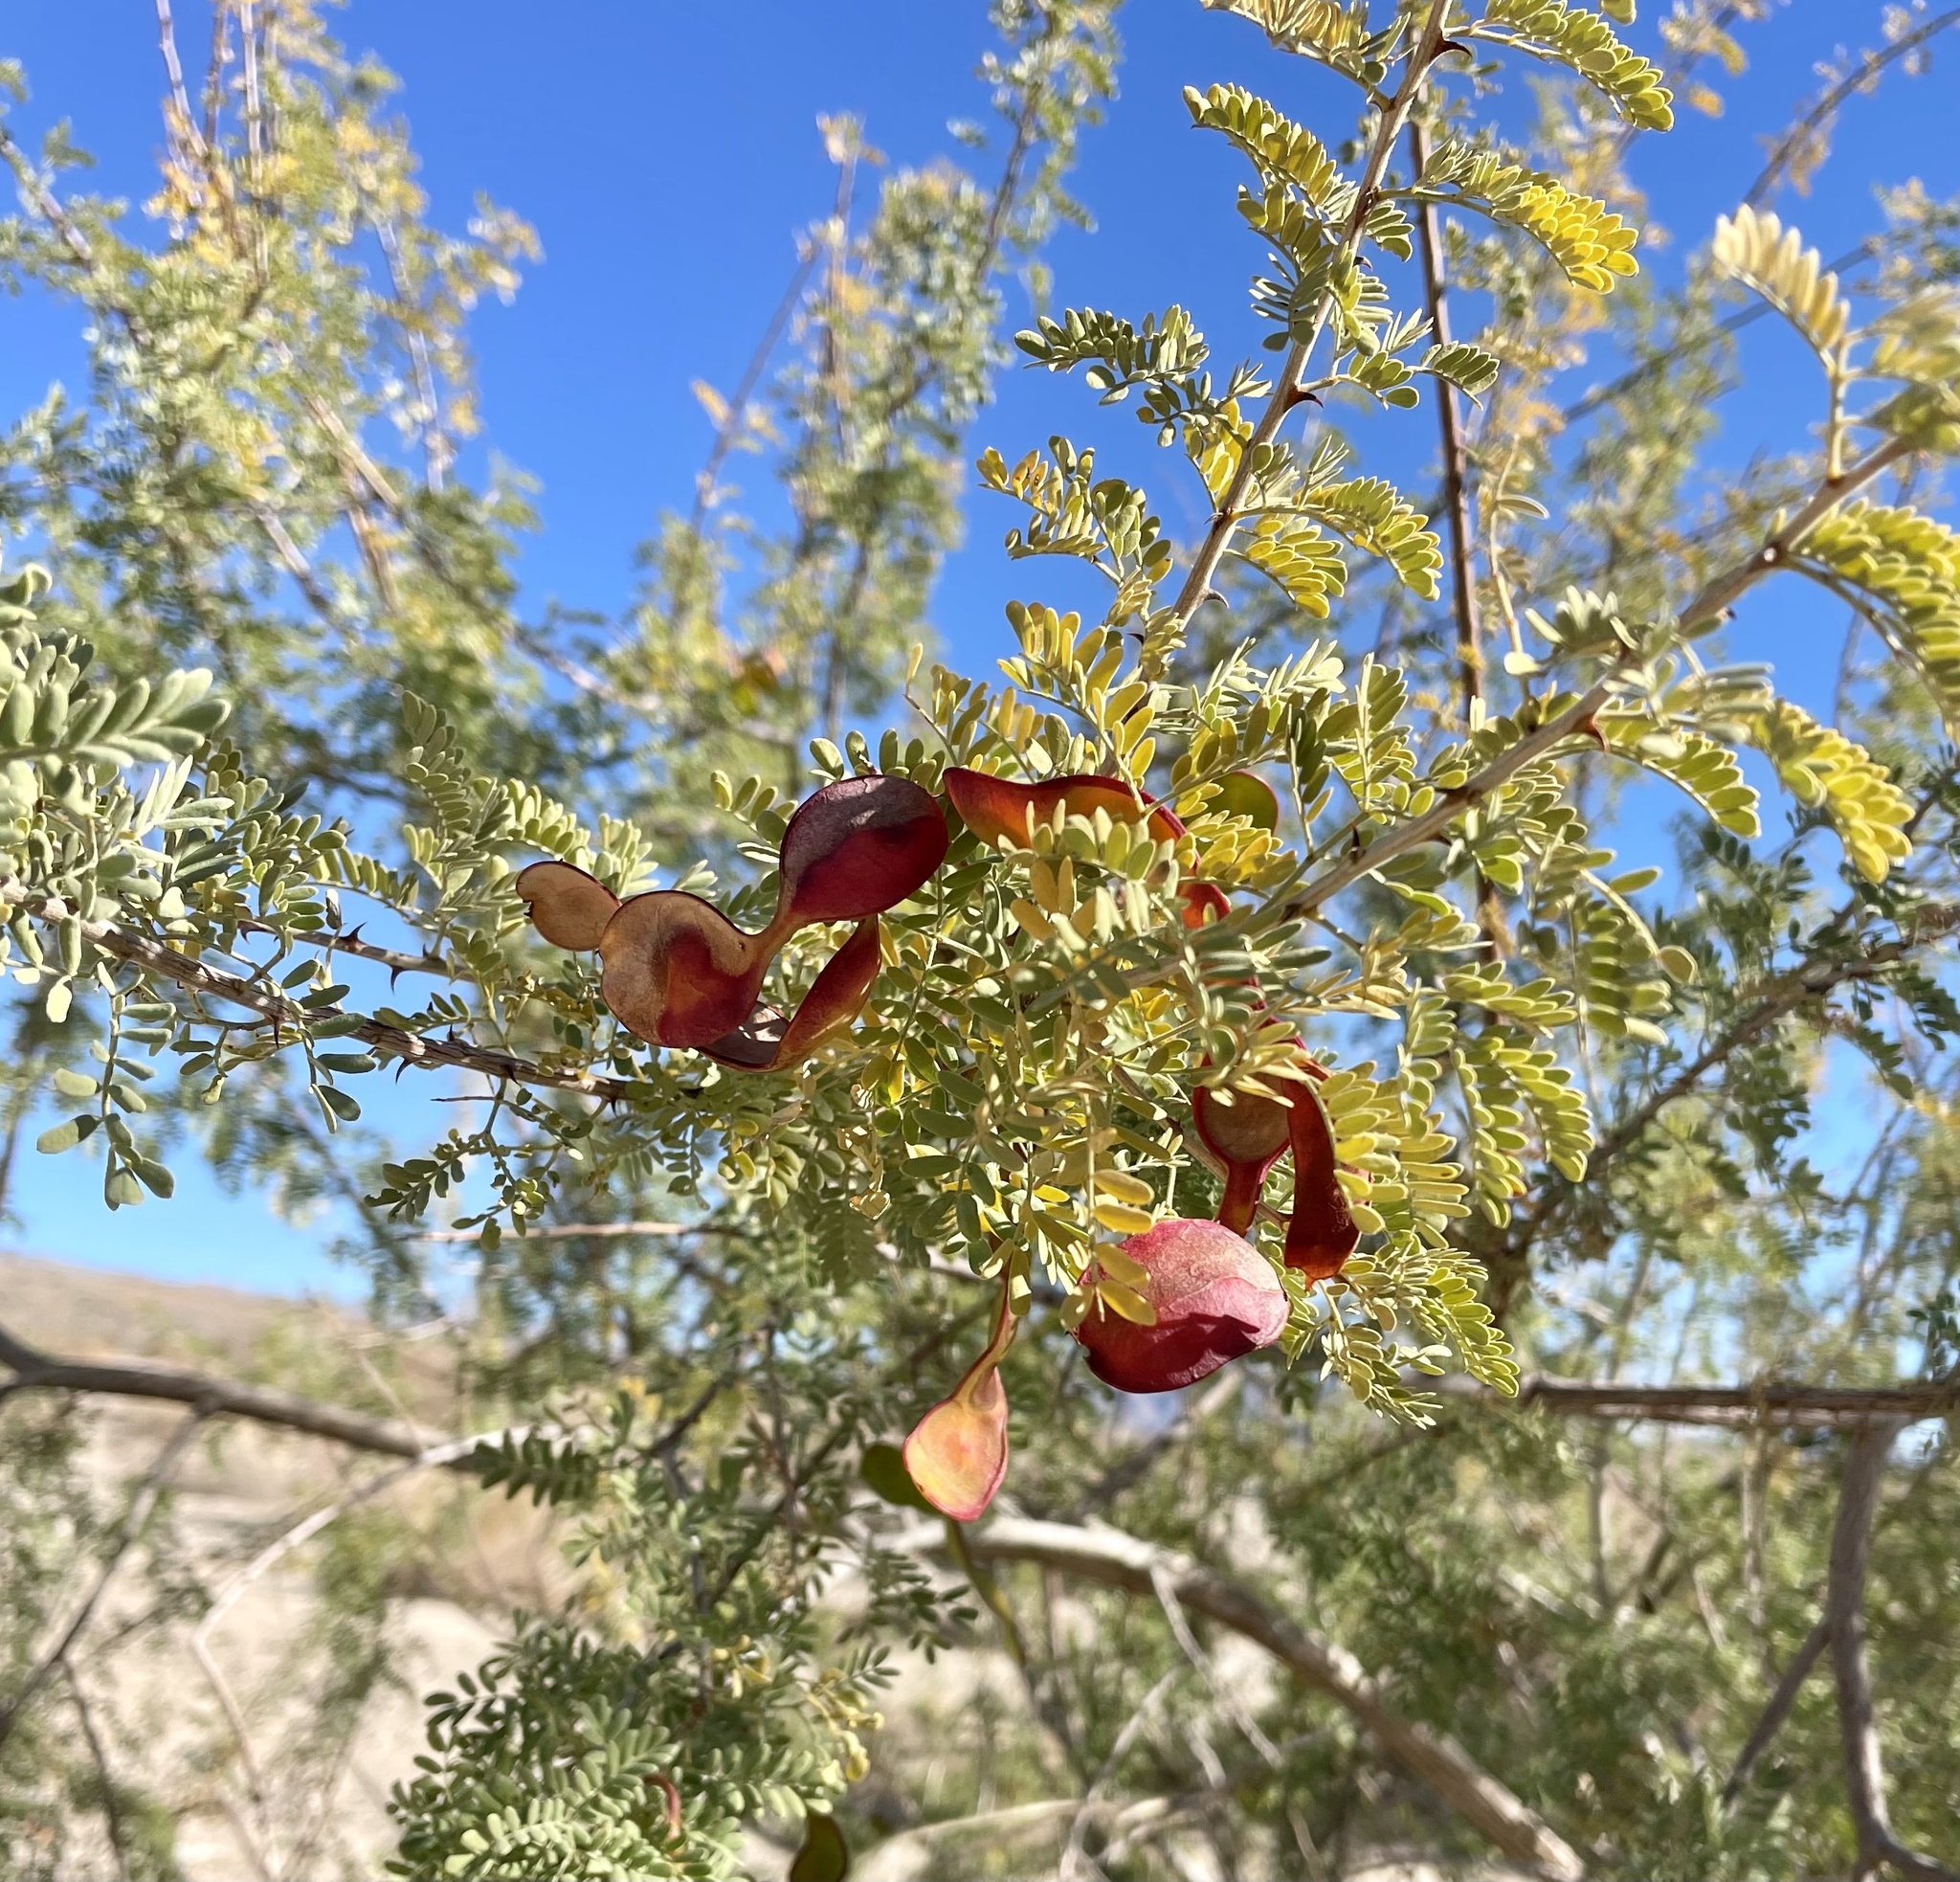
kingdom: Plantae
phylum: Tracheophyta
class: Magnoliopsida
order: Fabales
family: Fabaceae
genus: Senegalia
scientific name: Senegalia greggii
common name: Texas-mimosa
